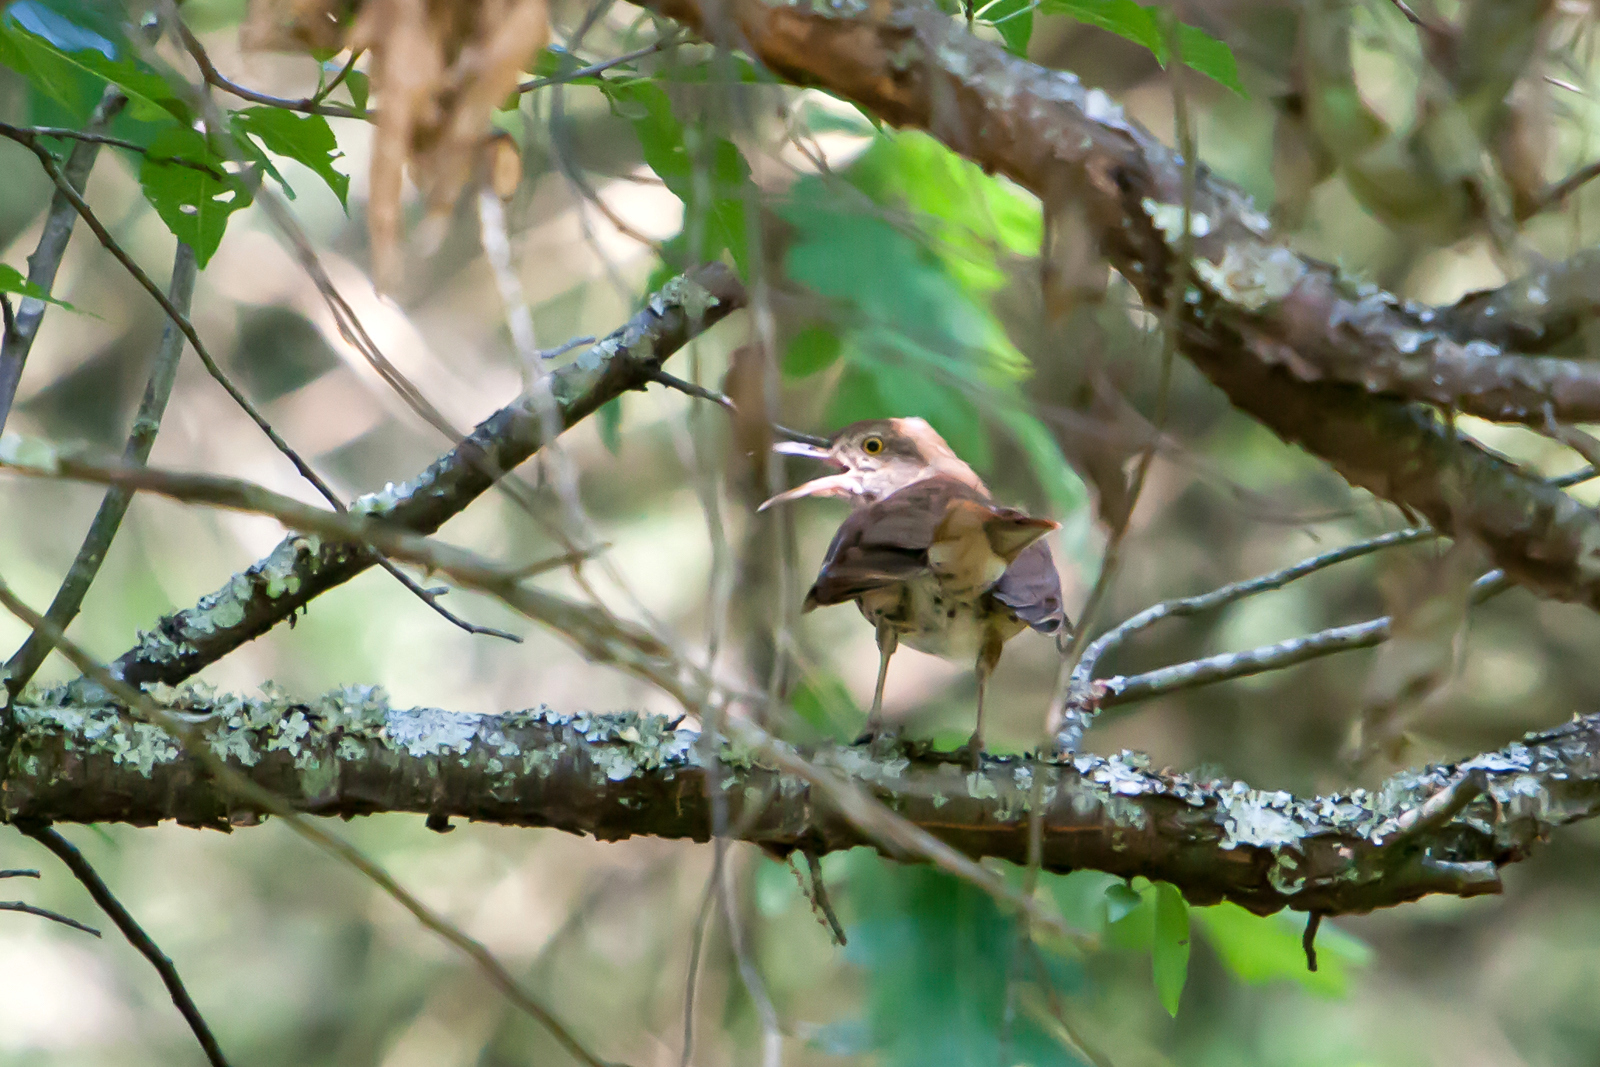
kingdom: Animalia
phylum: Chordata
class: Aves
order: Passeriformes
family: Mimidae
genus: Toxostoma
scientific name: Toxostoma rufum
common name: Brown thrasher
